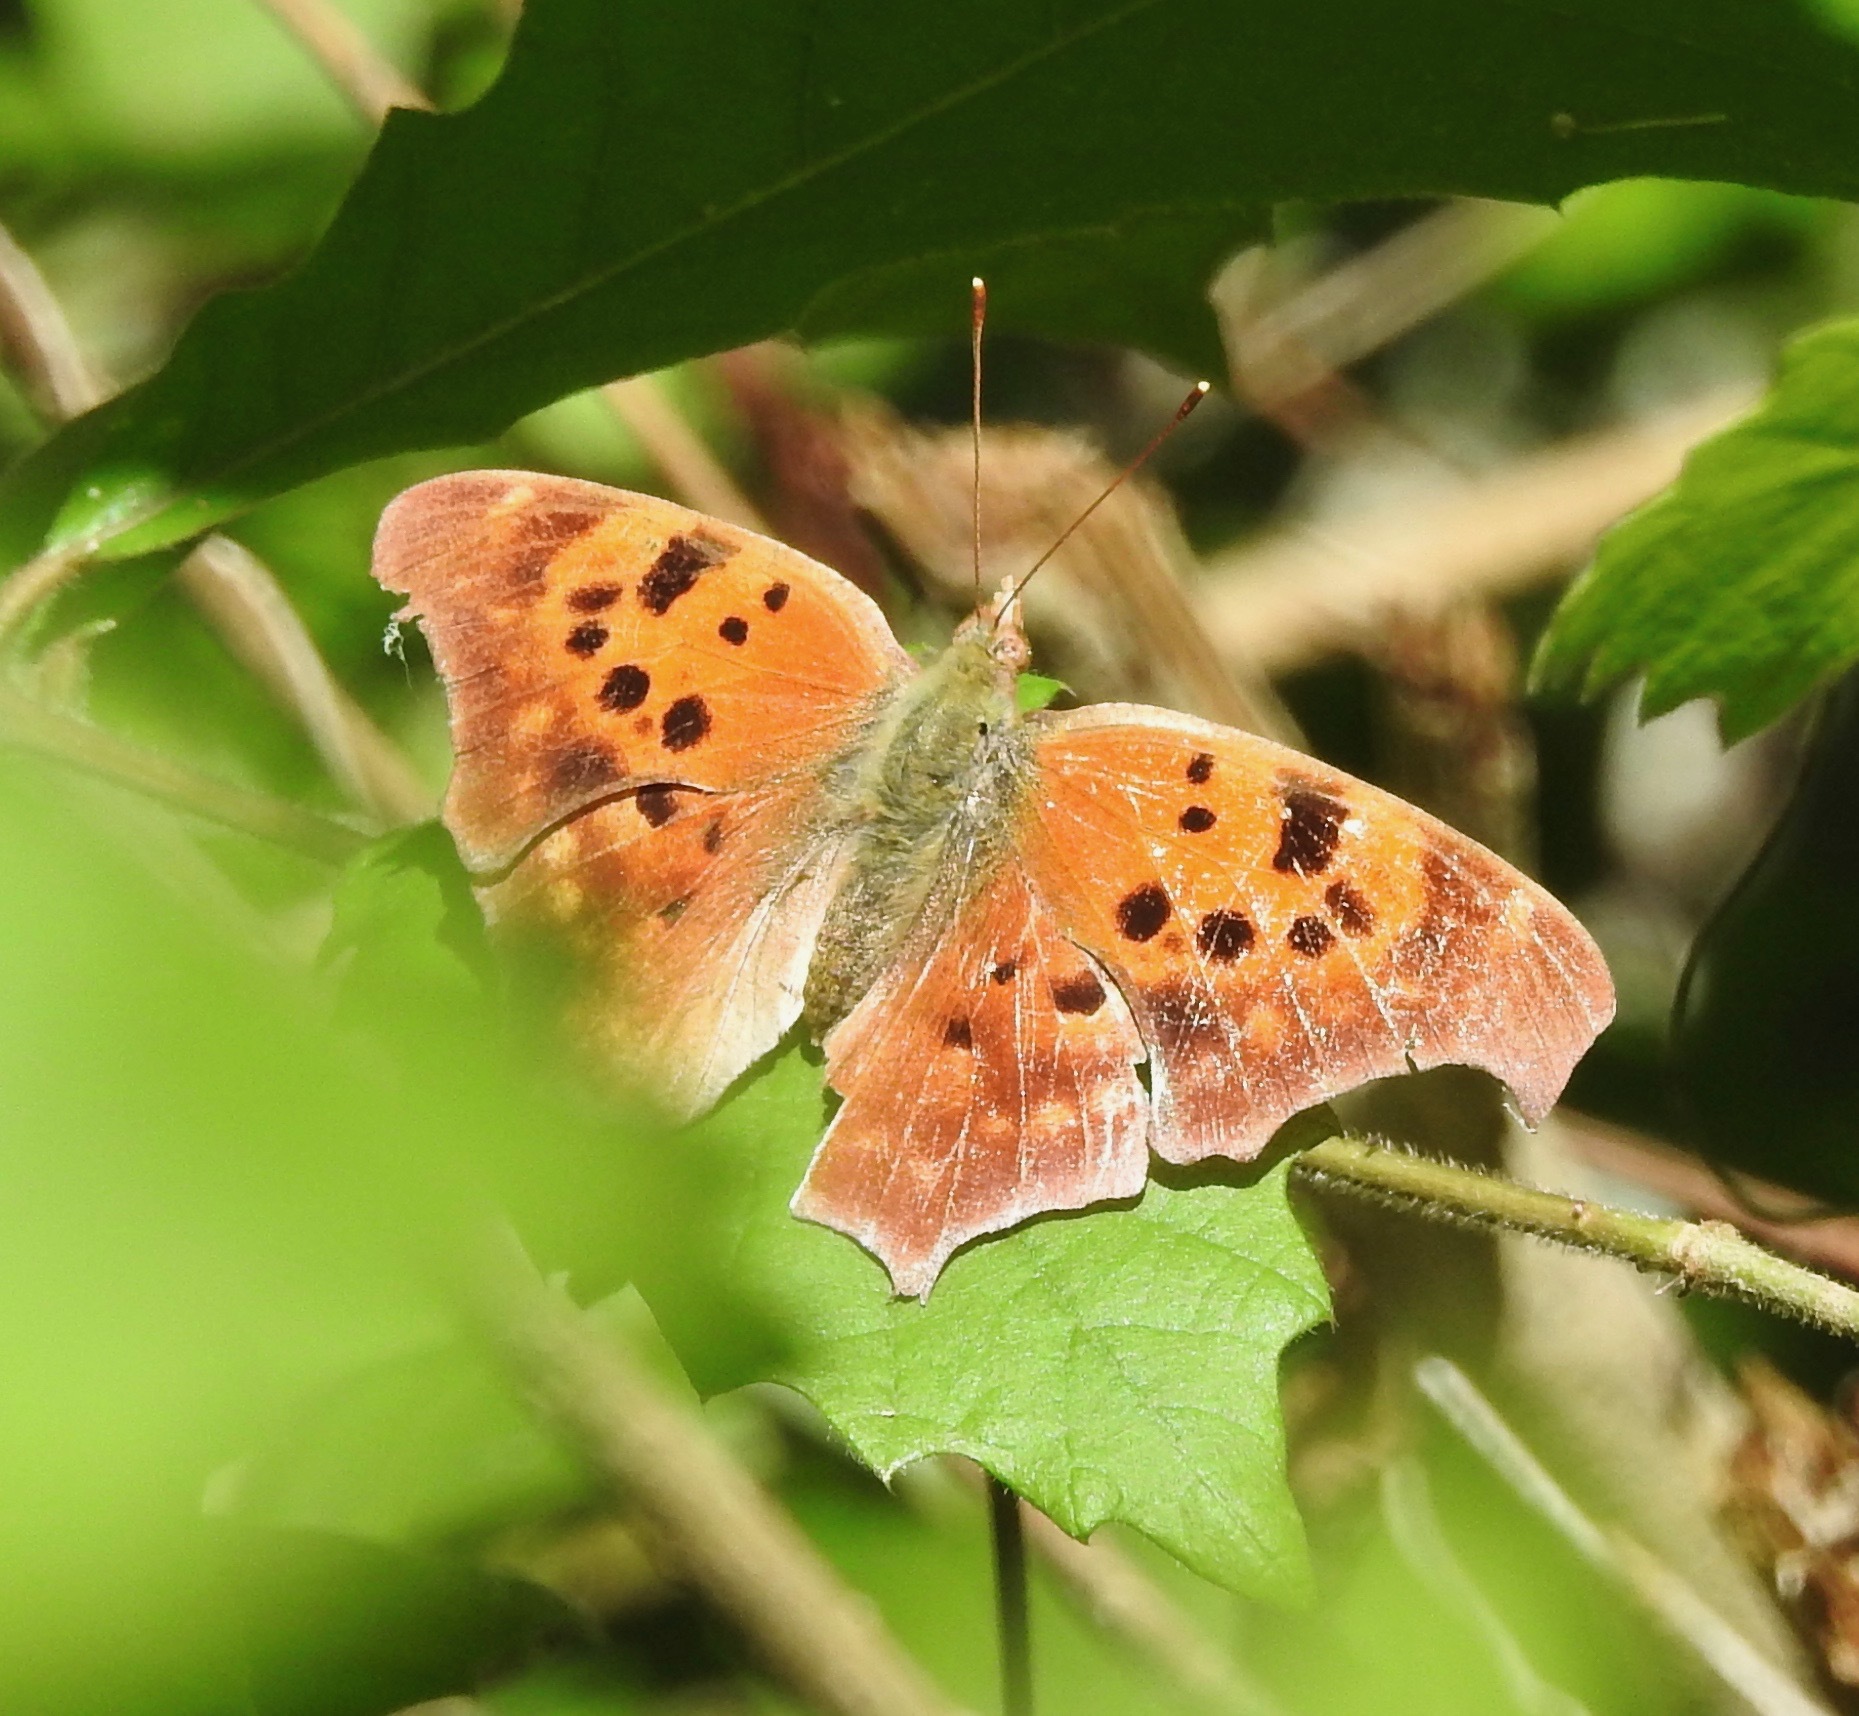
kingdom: Animalia
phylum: Arthropoda
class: Insecta
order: Lepidoptera
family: Nymphalidae
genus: Polygonia
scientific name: Polygonia interrogationis
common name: Question mark
